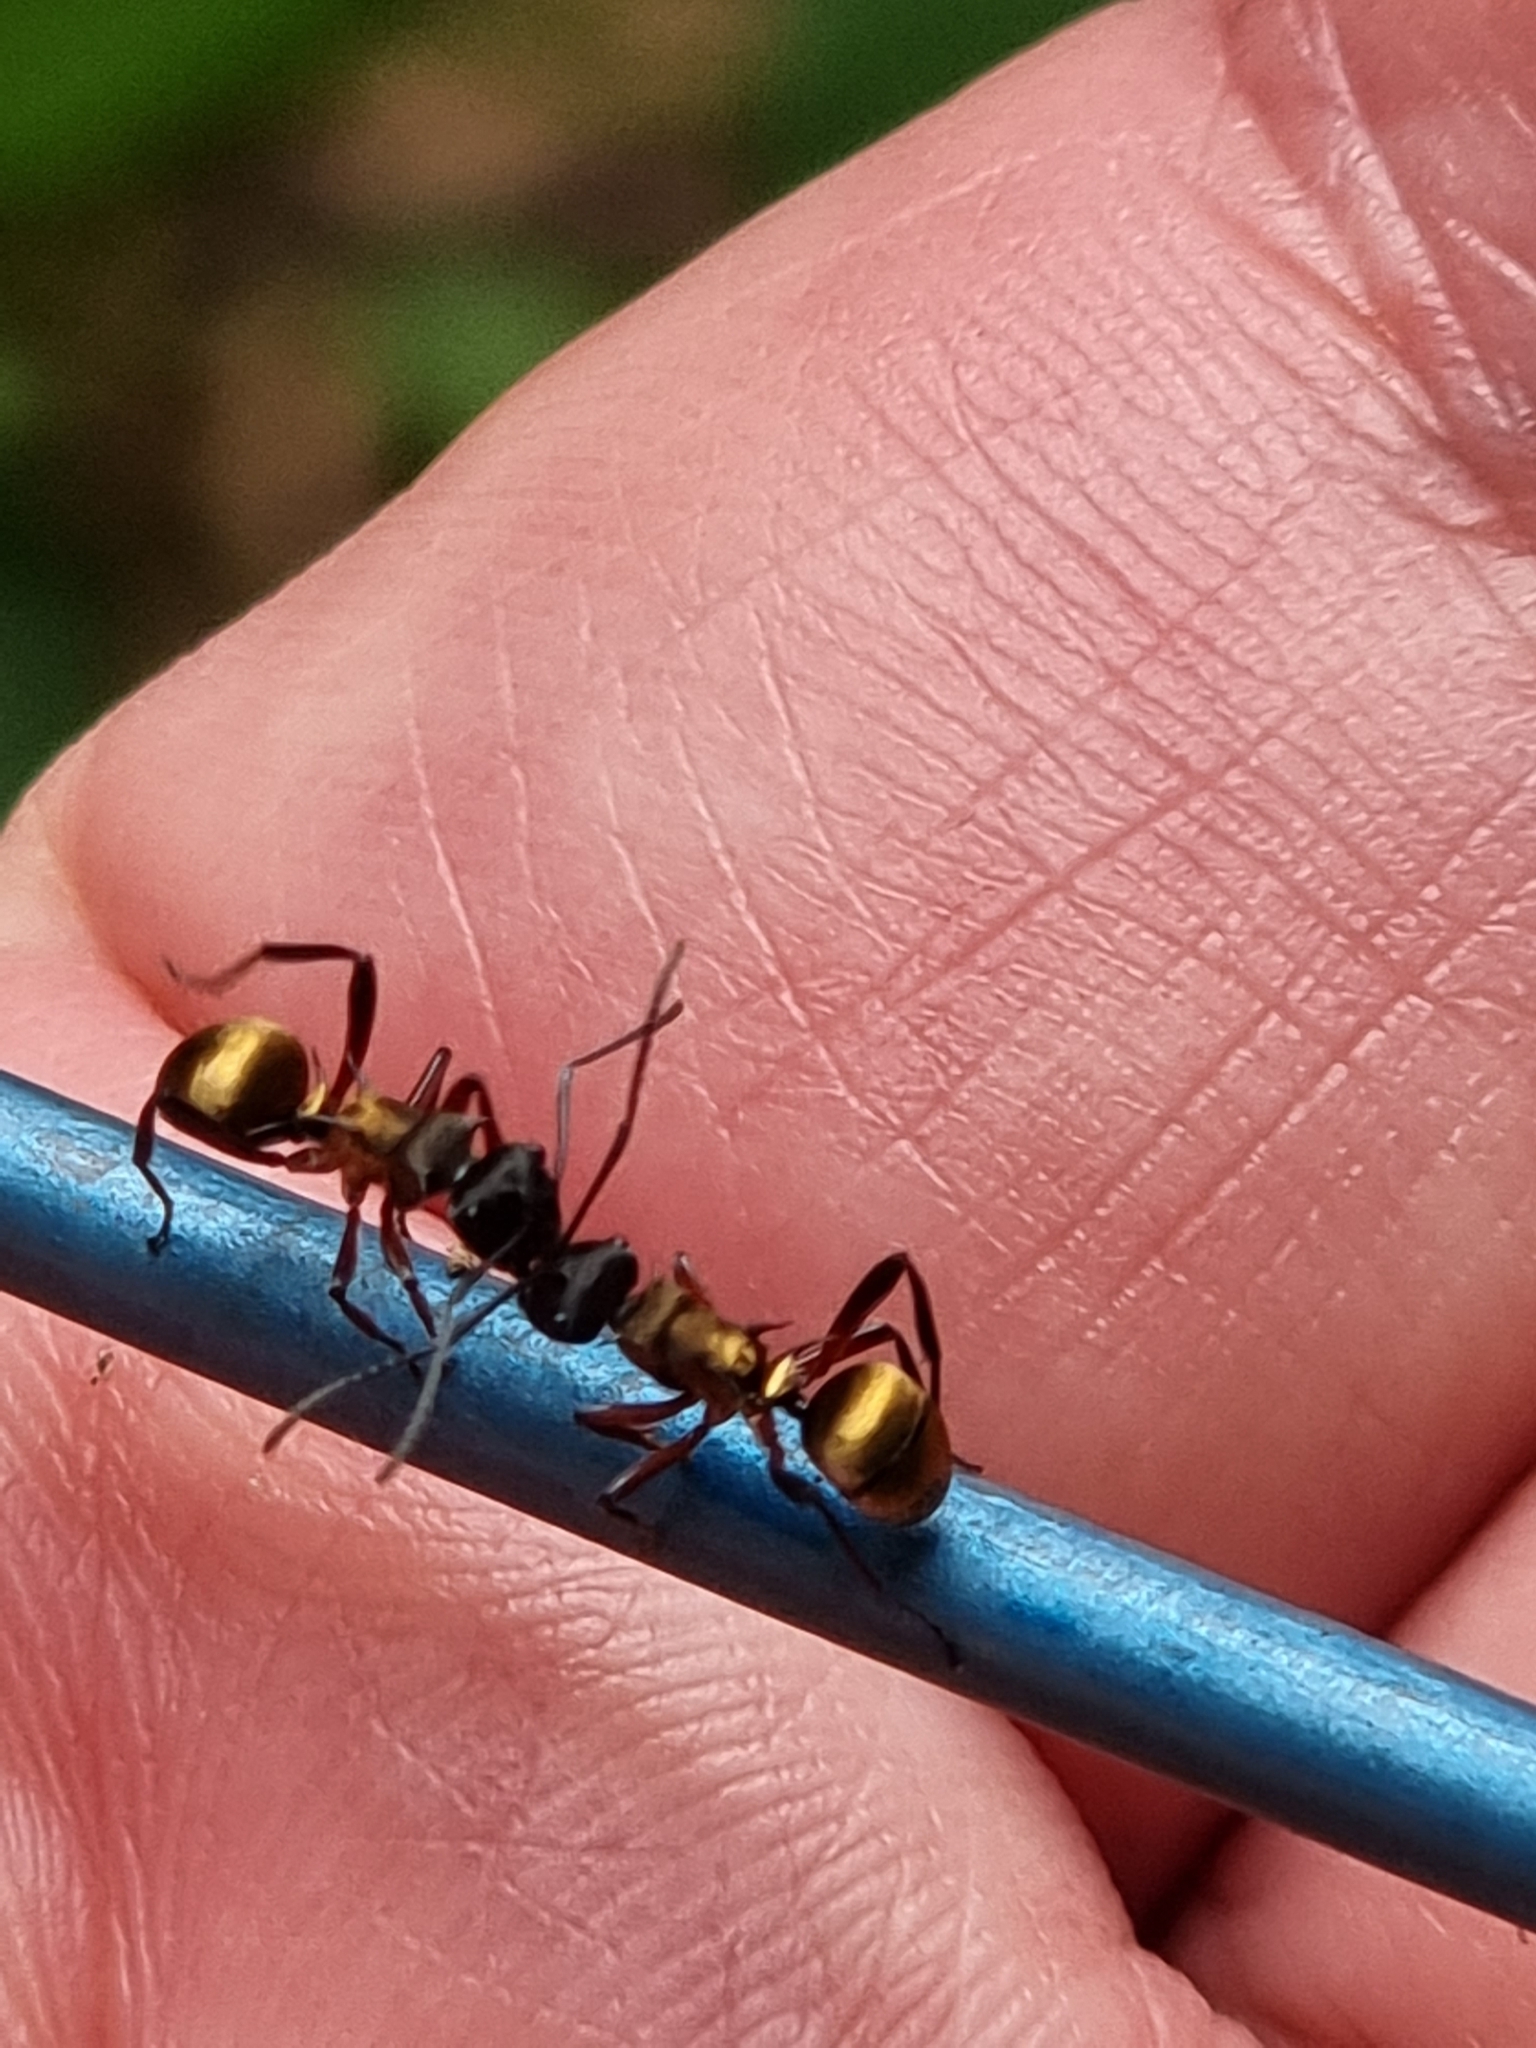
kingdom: Animalia
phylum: Arthropoda
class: Insecta
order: Hymenoptera
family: Formicidae
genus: Polyrhachis
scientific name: Polyrhachis rufifemur
